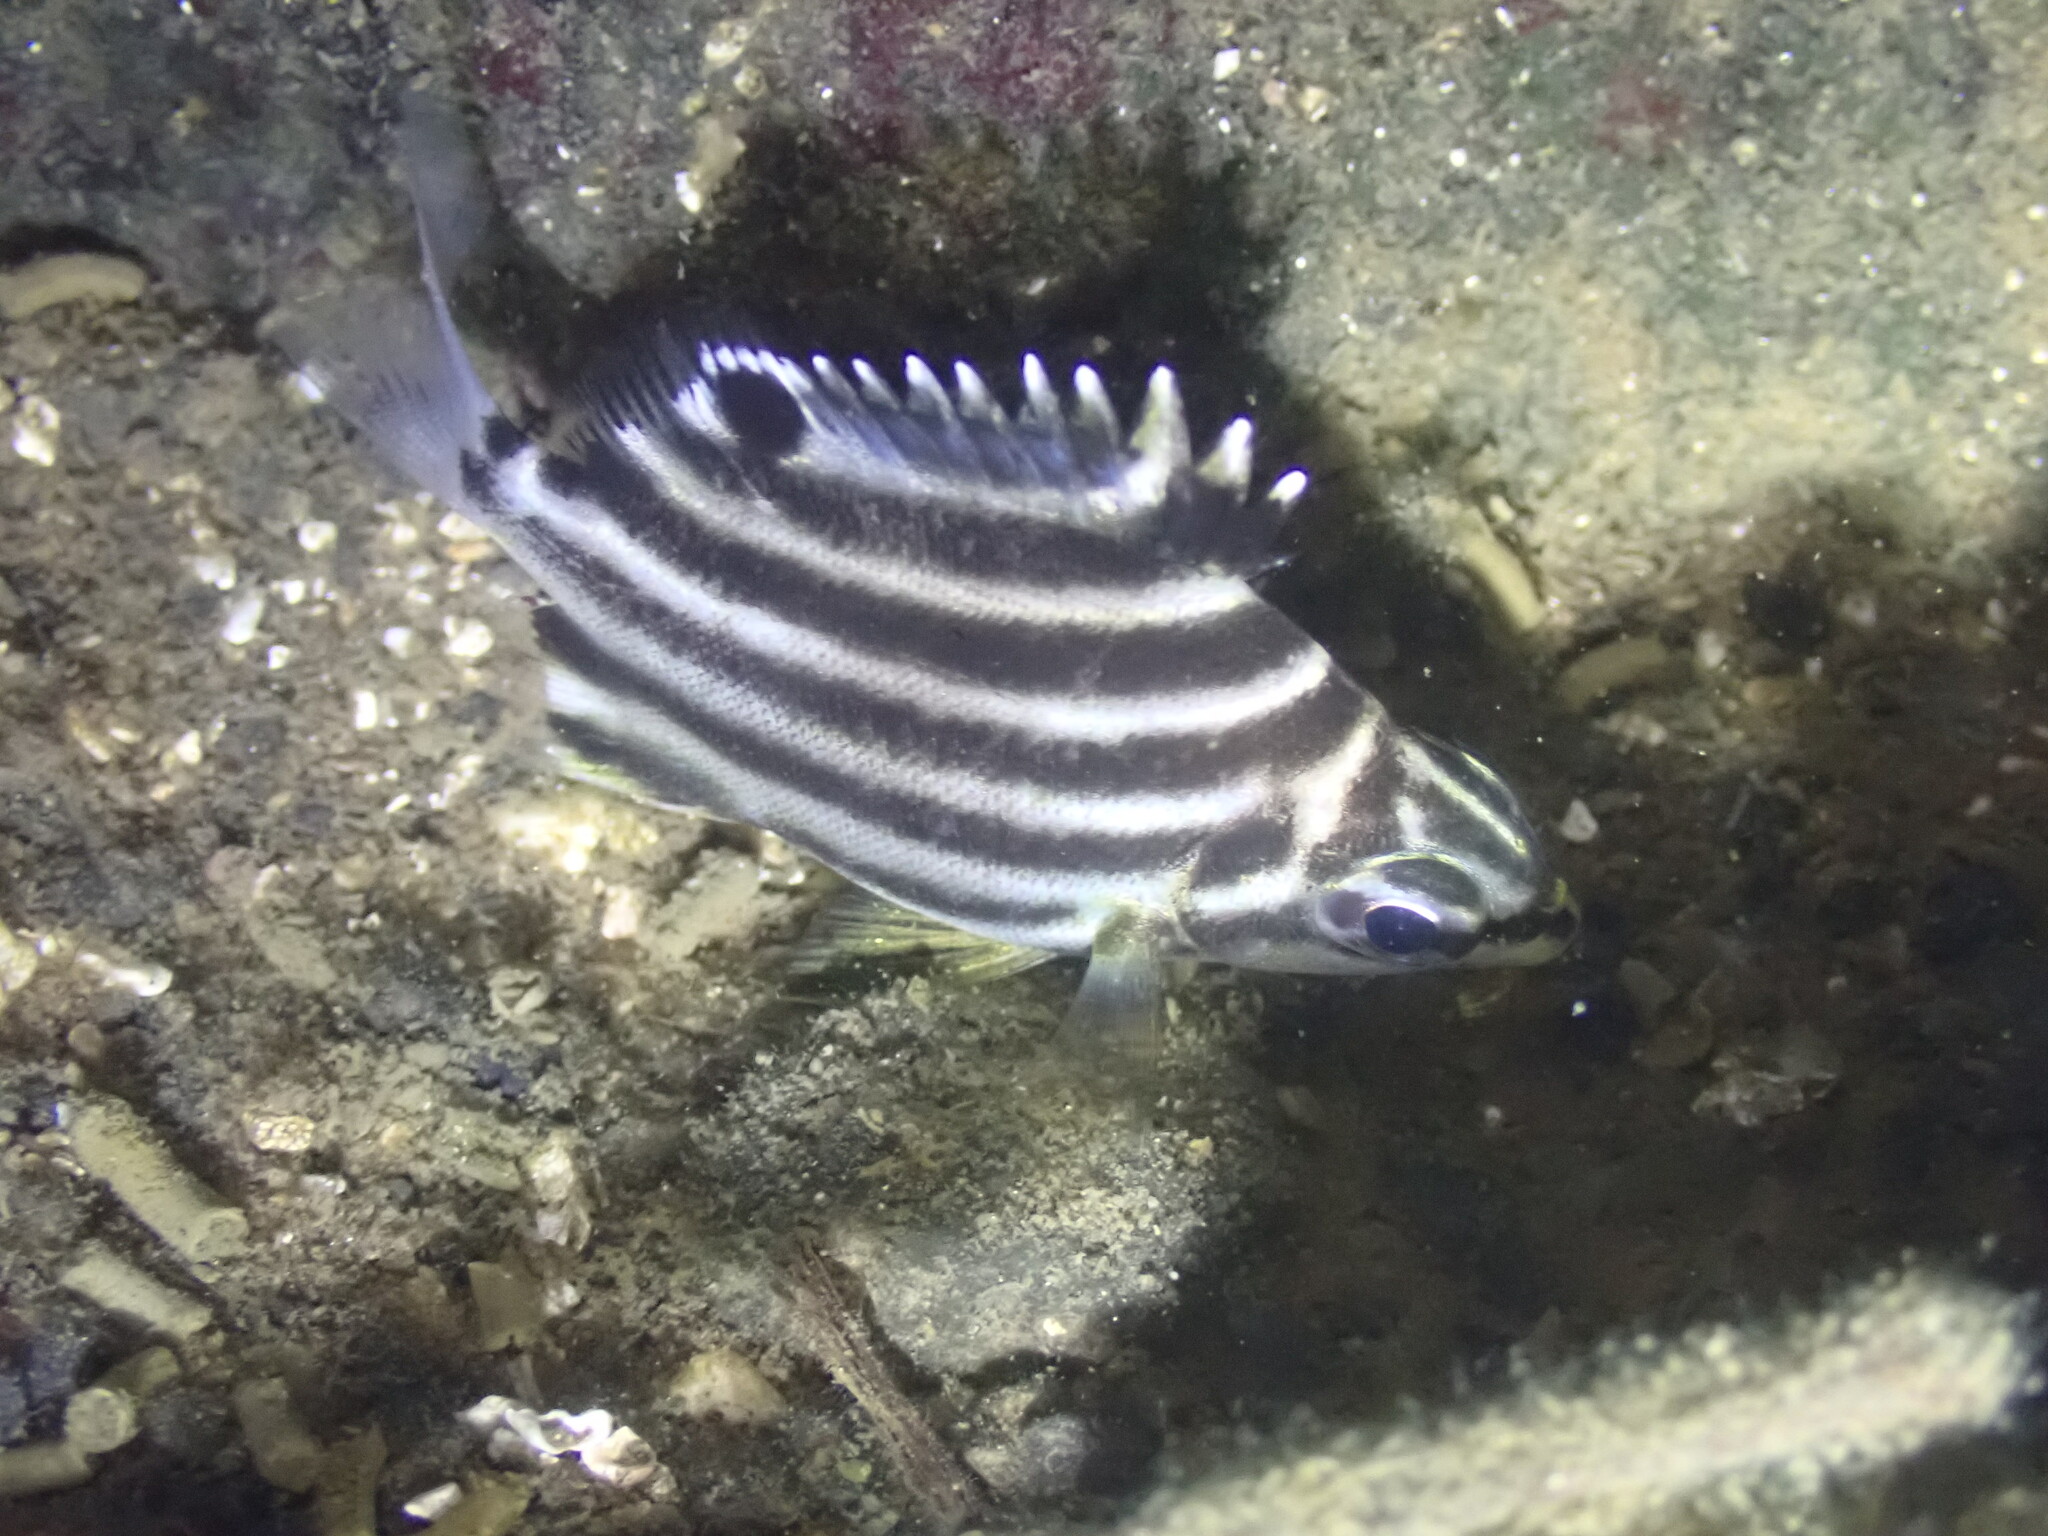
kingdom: Animalia
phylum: Chordata
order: Perciformes
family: Kyphosidae
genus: Microcanthus
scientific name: Microcanthus strigatus
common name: Stripey
